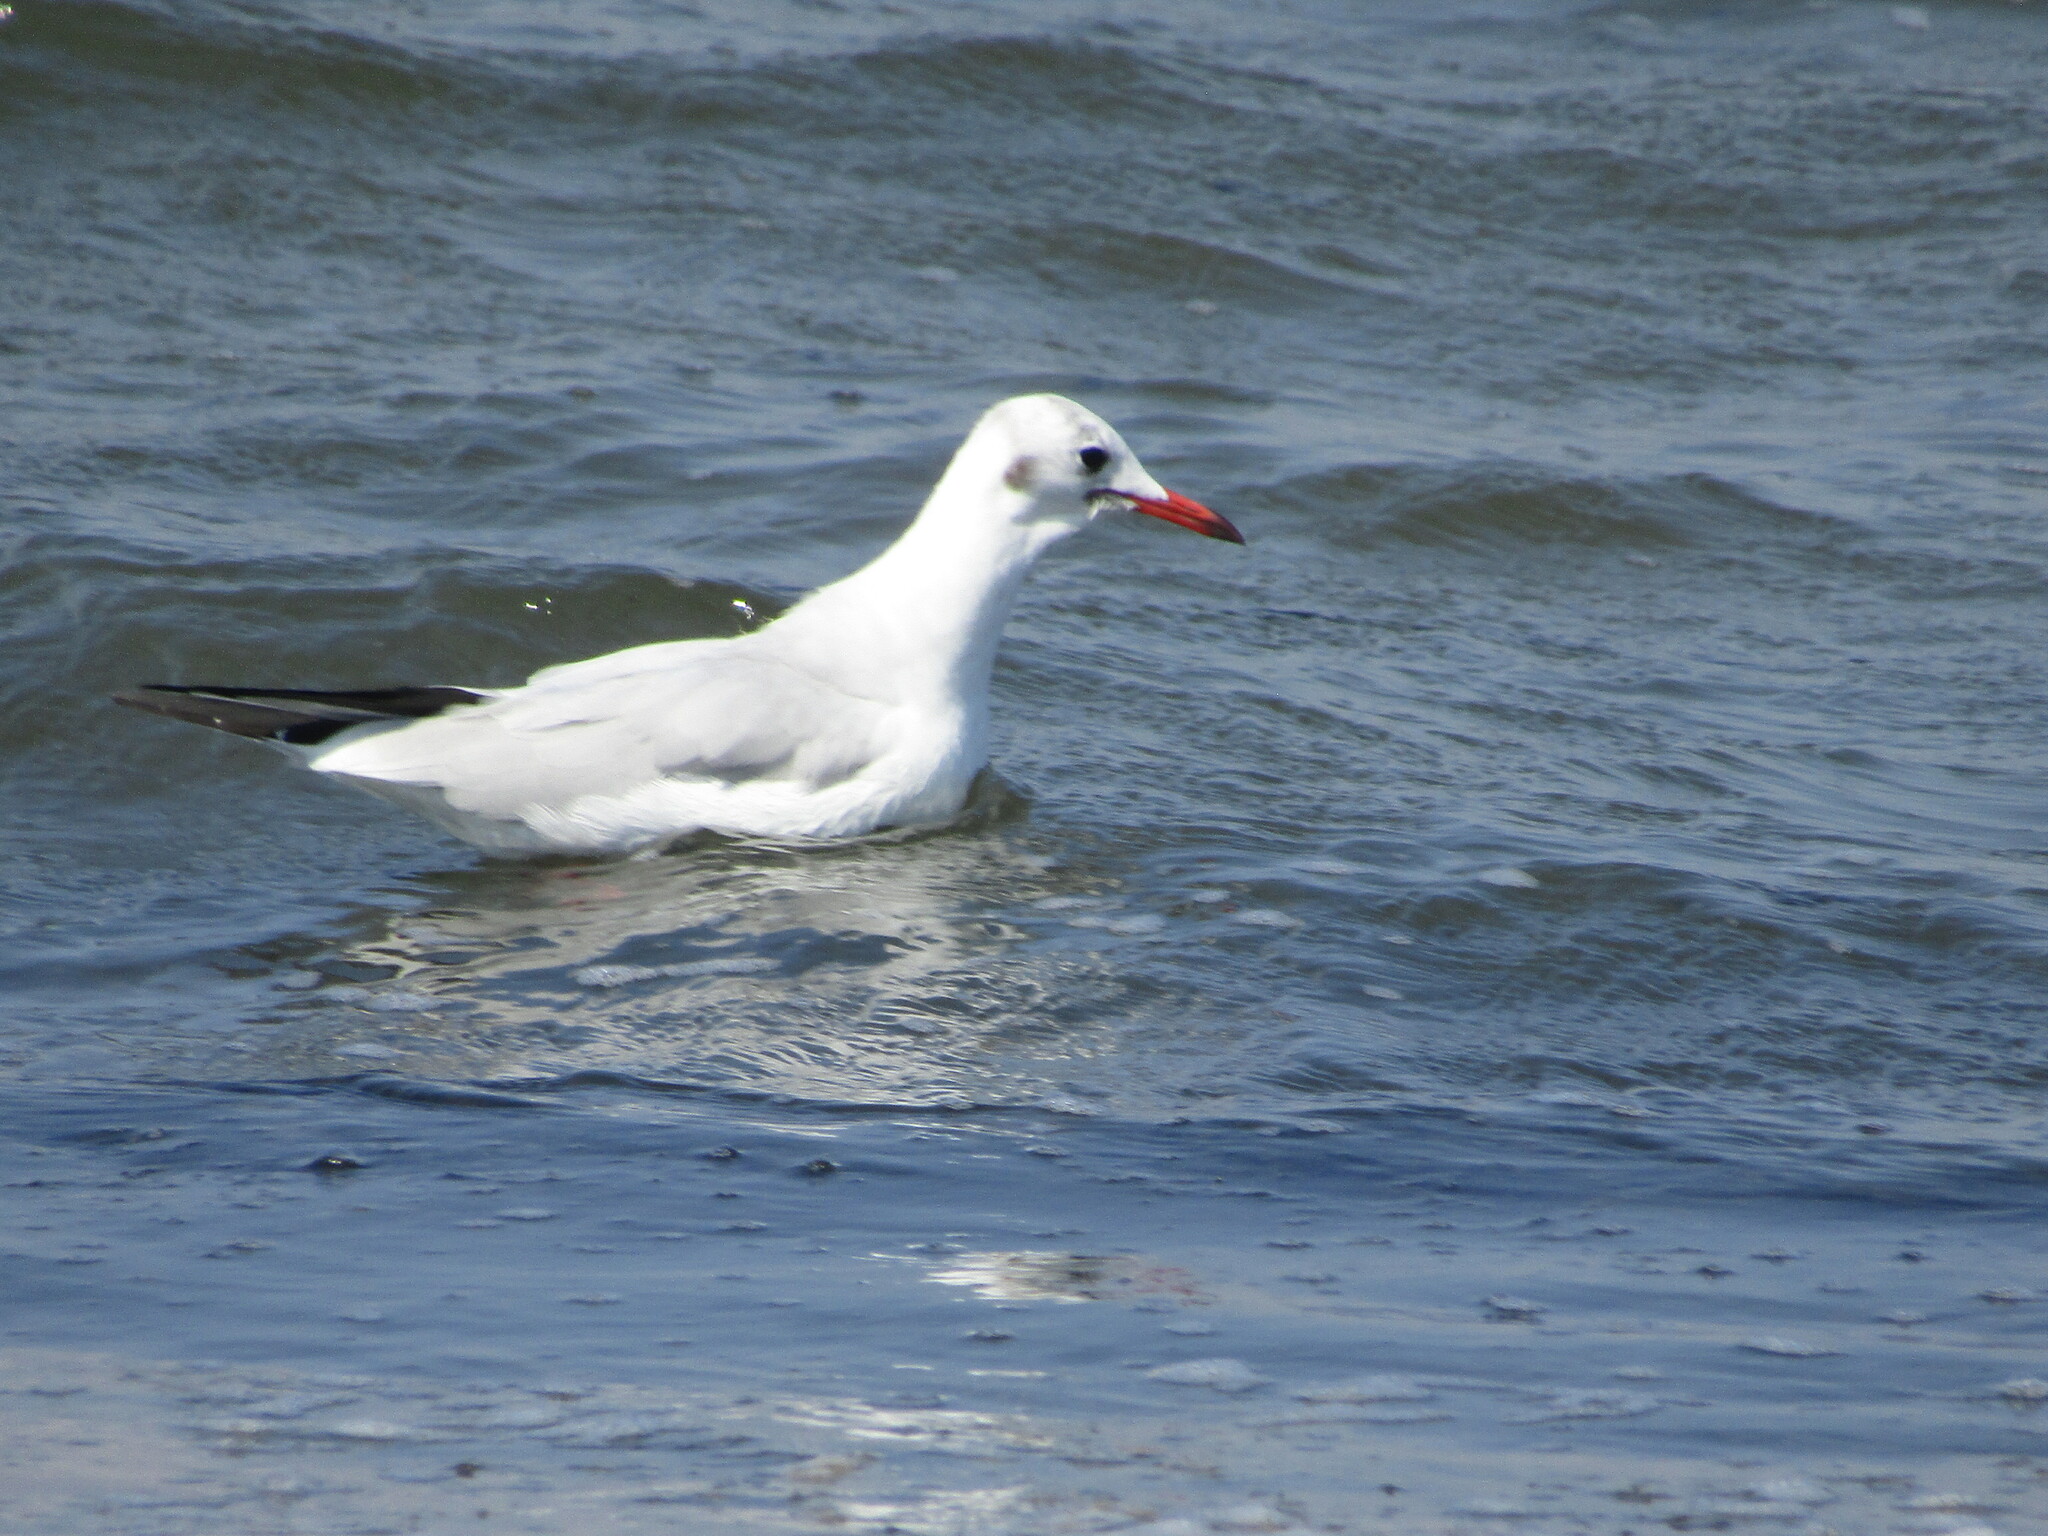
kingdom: Animalia
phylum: Chordata
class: Aves
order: Charadriiformes
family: Laridae
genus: Chroicocephalus
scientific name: Chroicocephalus ridibundus
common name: Black-headed gull
